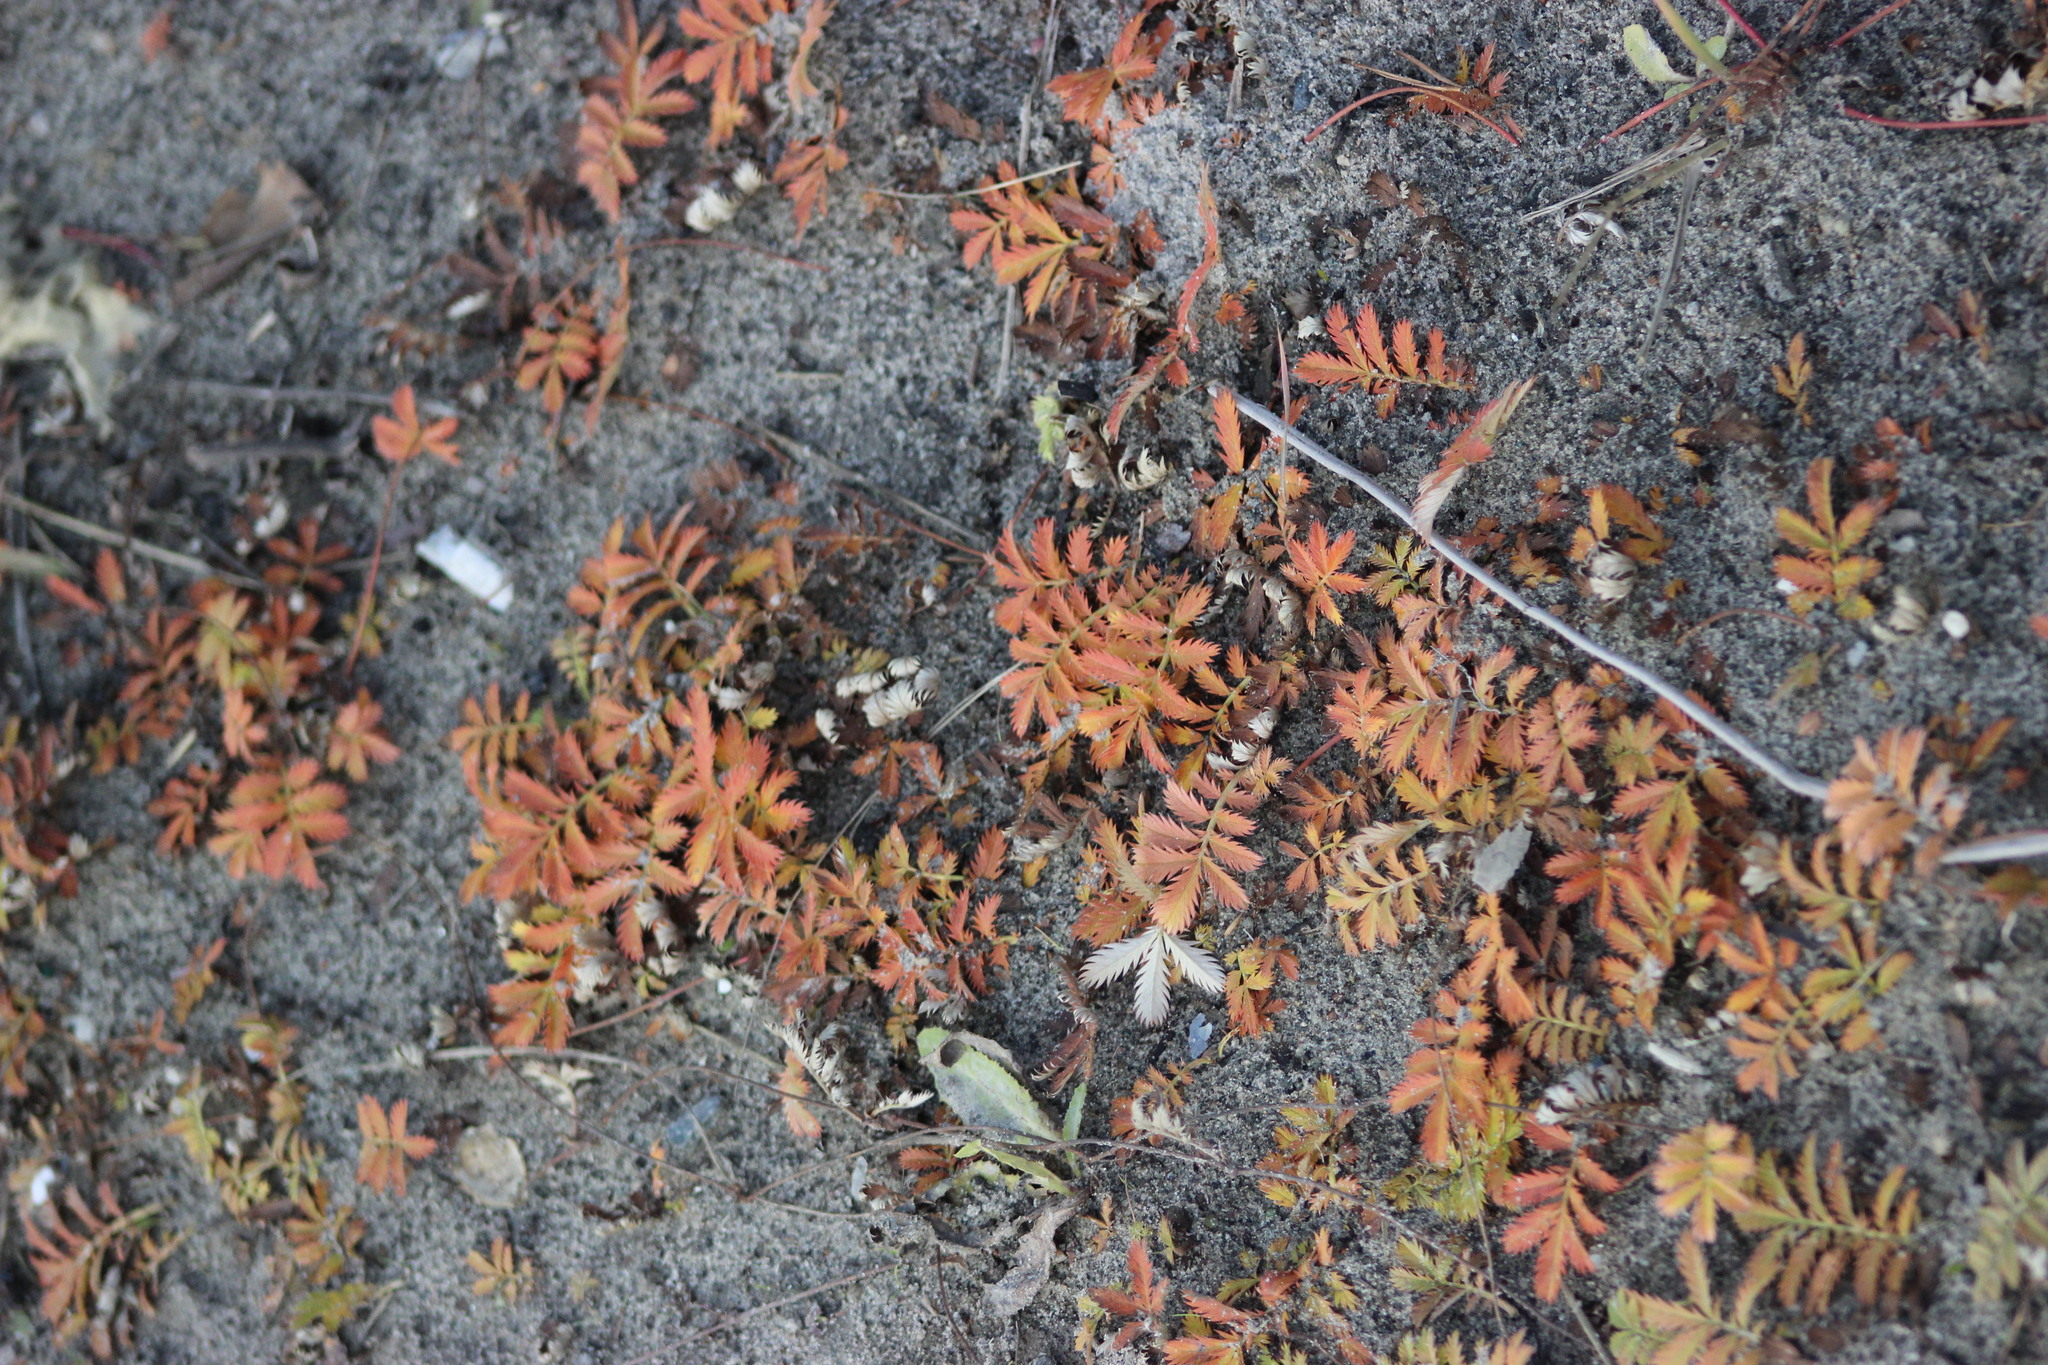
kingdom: Plantae
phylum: Tracheophyta
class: Magnoliopsida
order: Rosales
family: Rosaceae
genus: Argentina
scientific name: Argentina anserina
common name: Common silverweed
